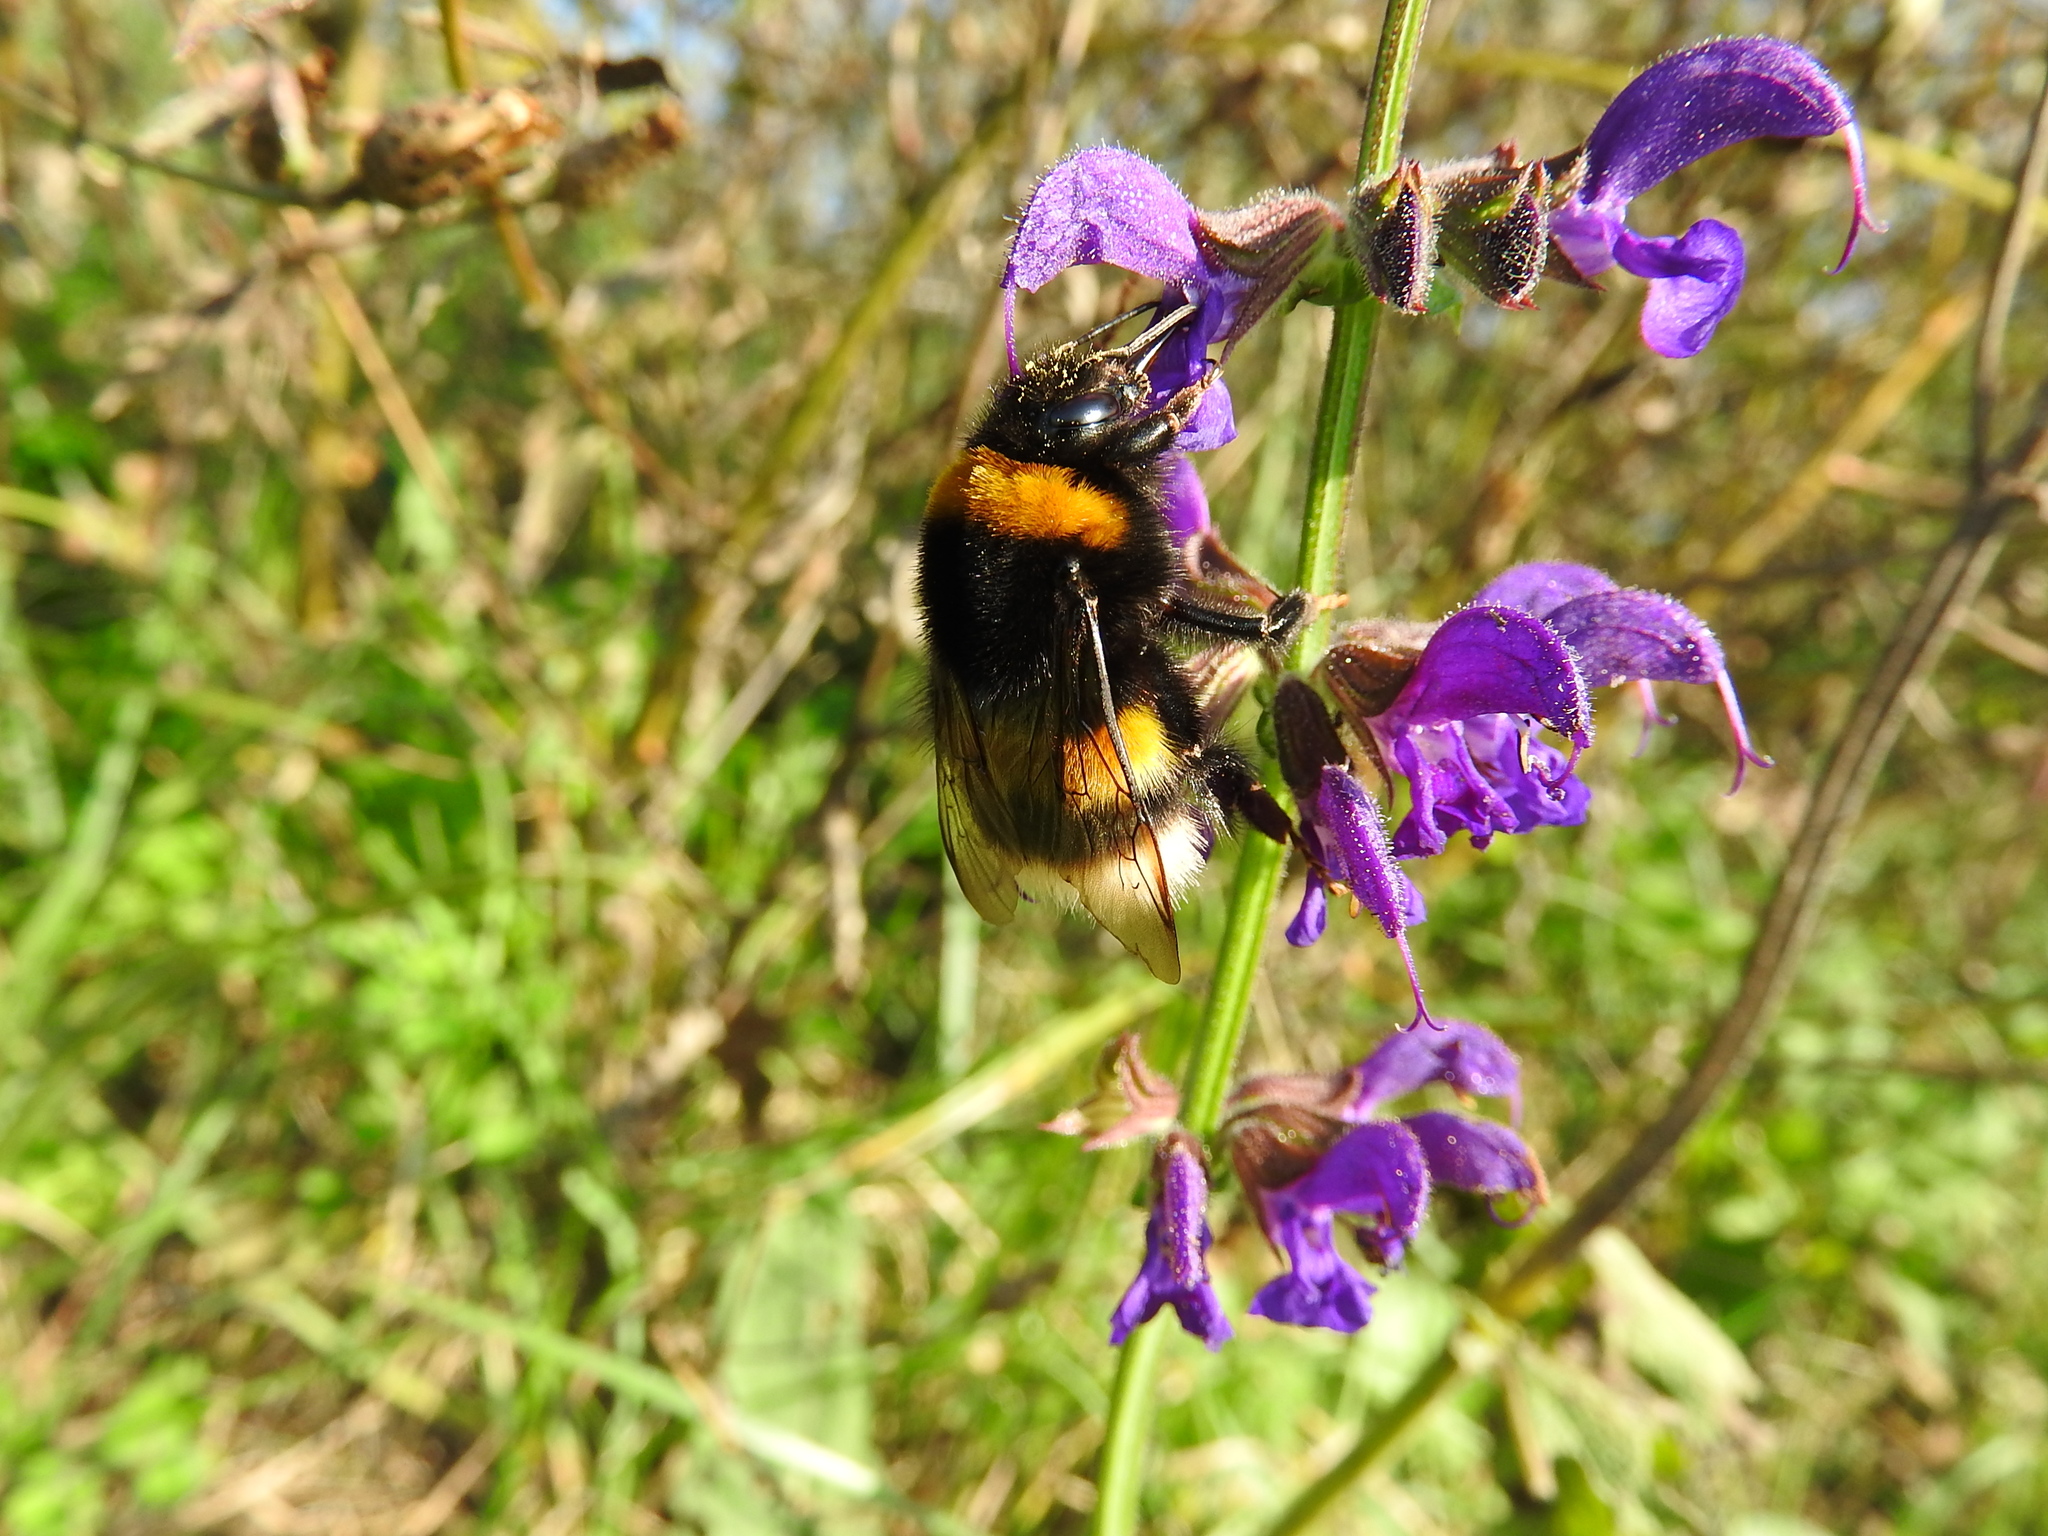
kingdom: Animalia
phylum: Arthropoda
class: Insecta
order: Hymenoptera
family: Apidae
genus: Bombus
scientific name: Bombus terrestris
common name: Buff-tailed bumblebee
